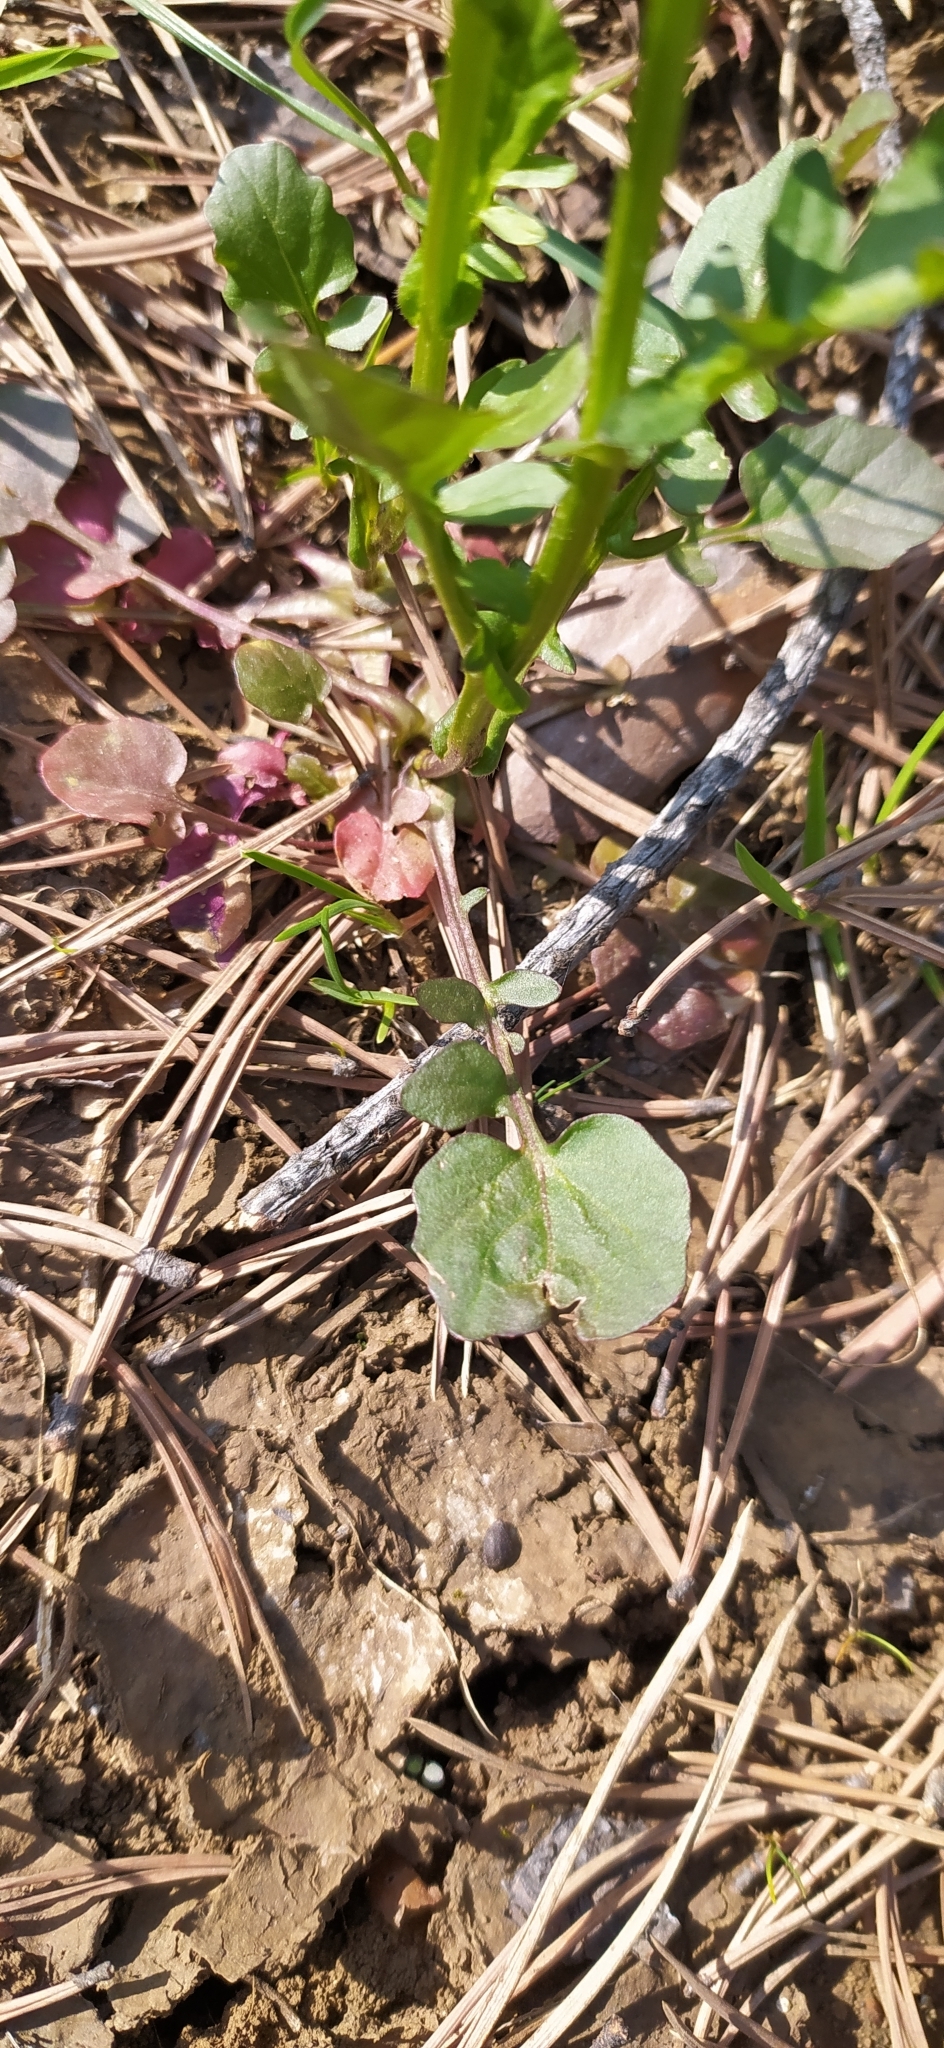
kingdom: Plantae
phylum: Tracheophyta
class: Magnoliopsida
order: Brassicales
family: Brassicaceae
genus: Barbarea
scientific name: Barbarea vulgaris
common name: Cressy-greens
